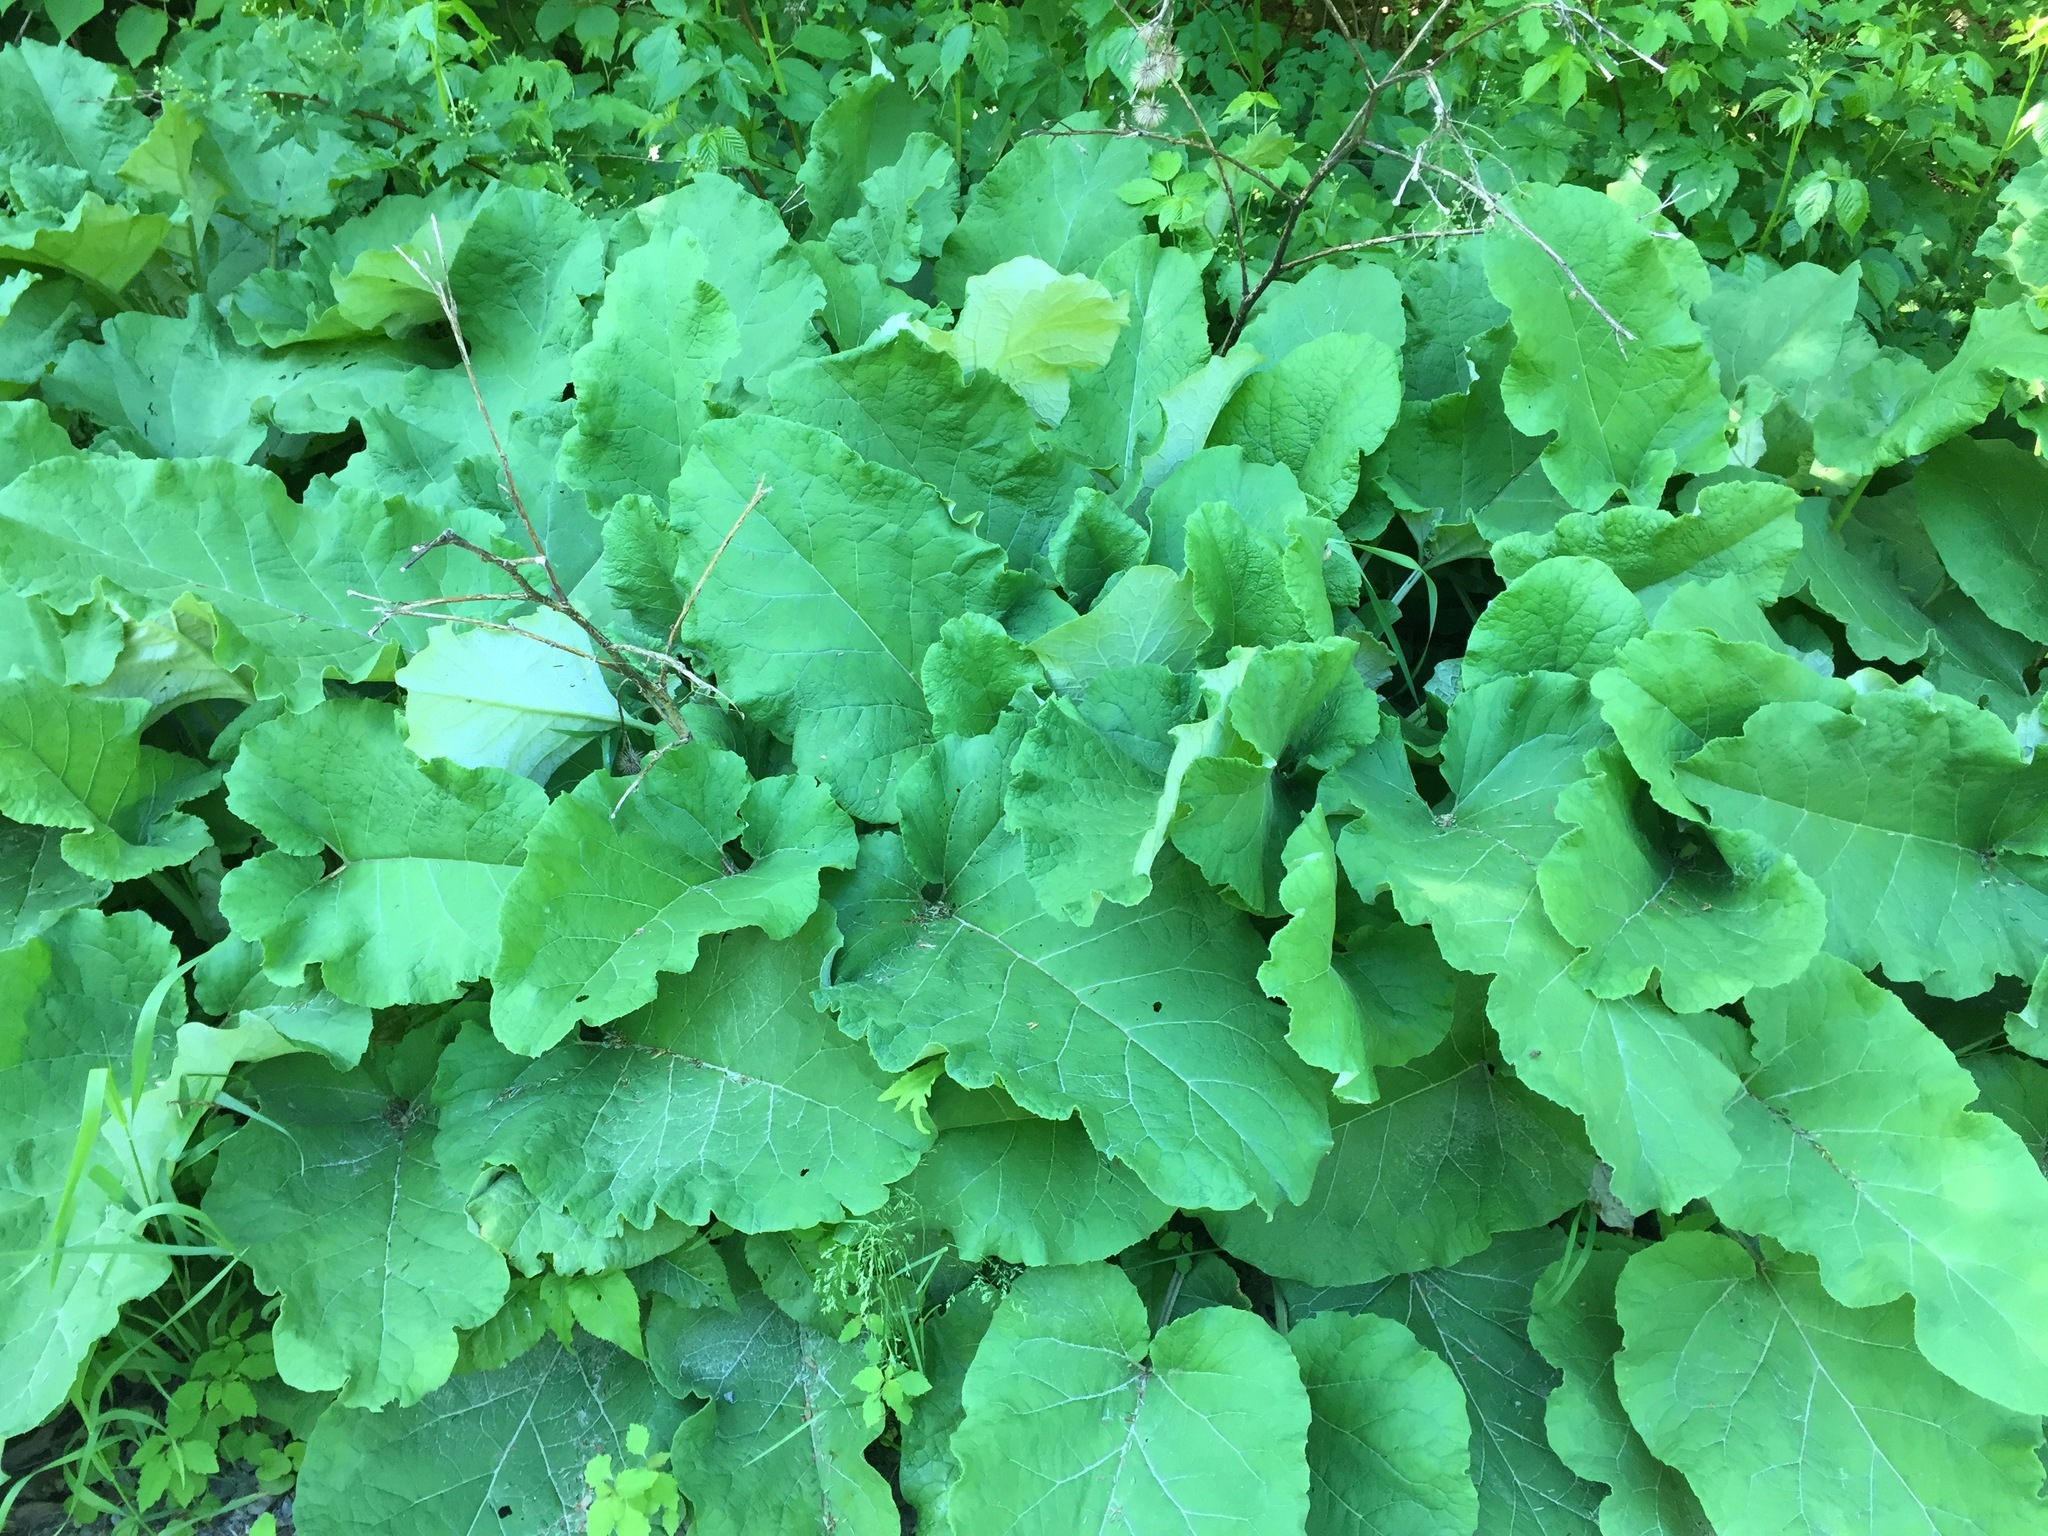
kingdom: Plantae
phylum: Tracheophyta
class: Magnoliopsida
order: Asterales
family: Asteraceae
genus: Arctium
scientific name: Arctium
